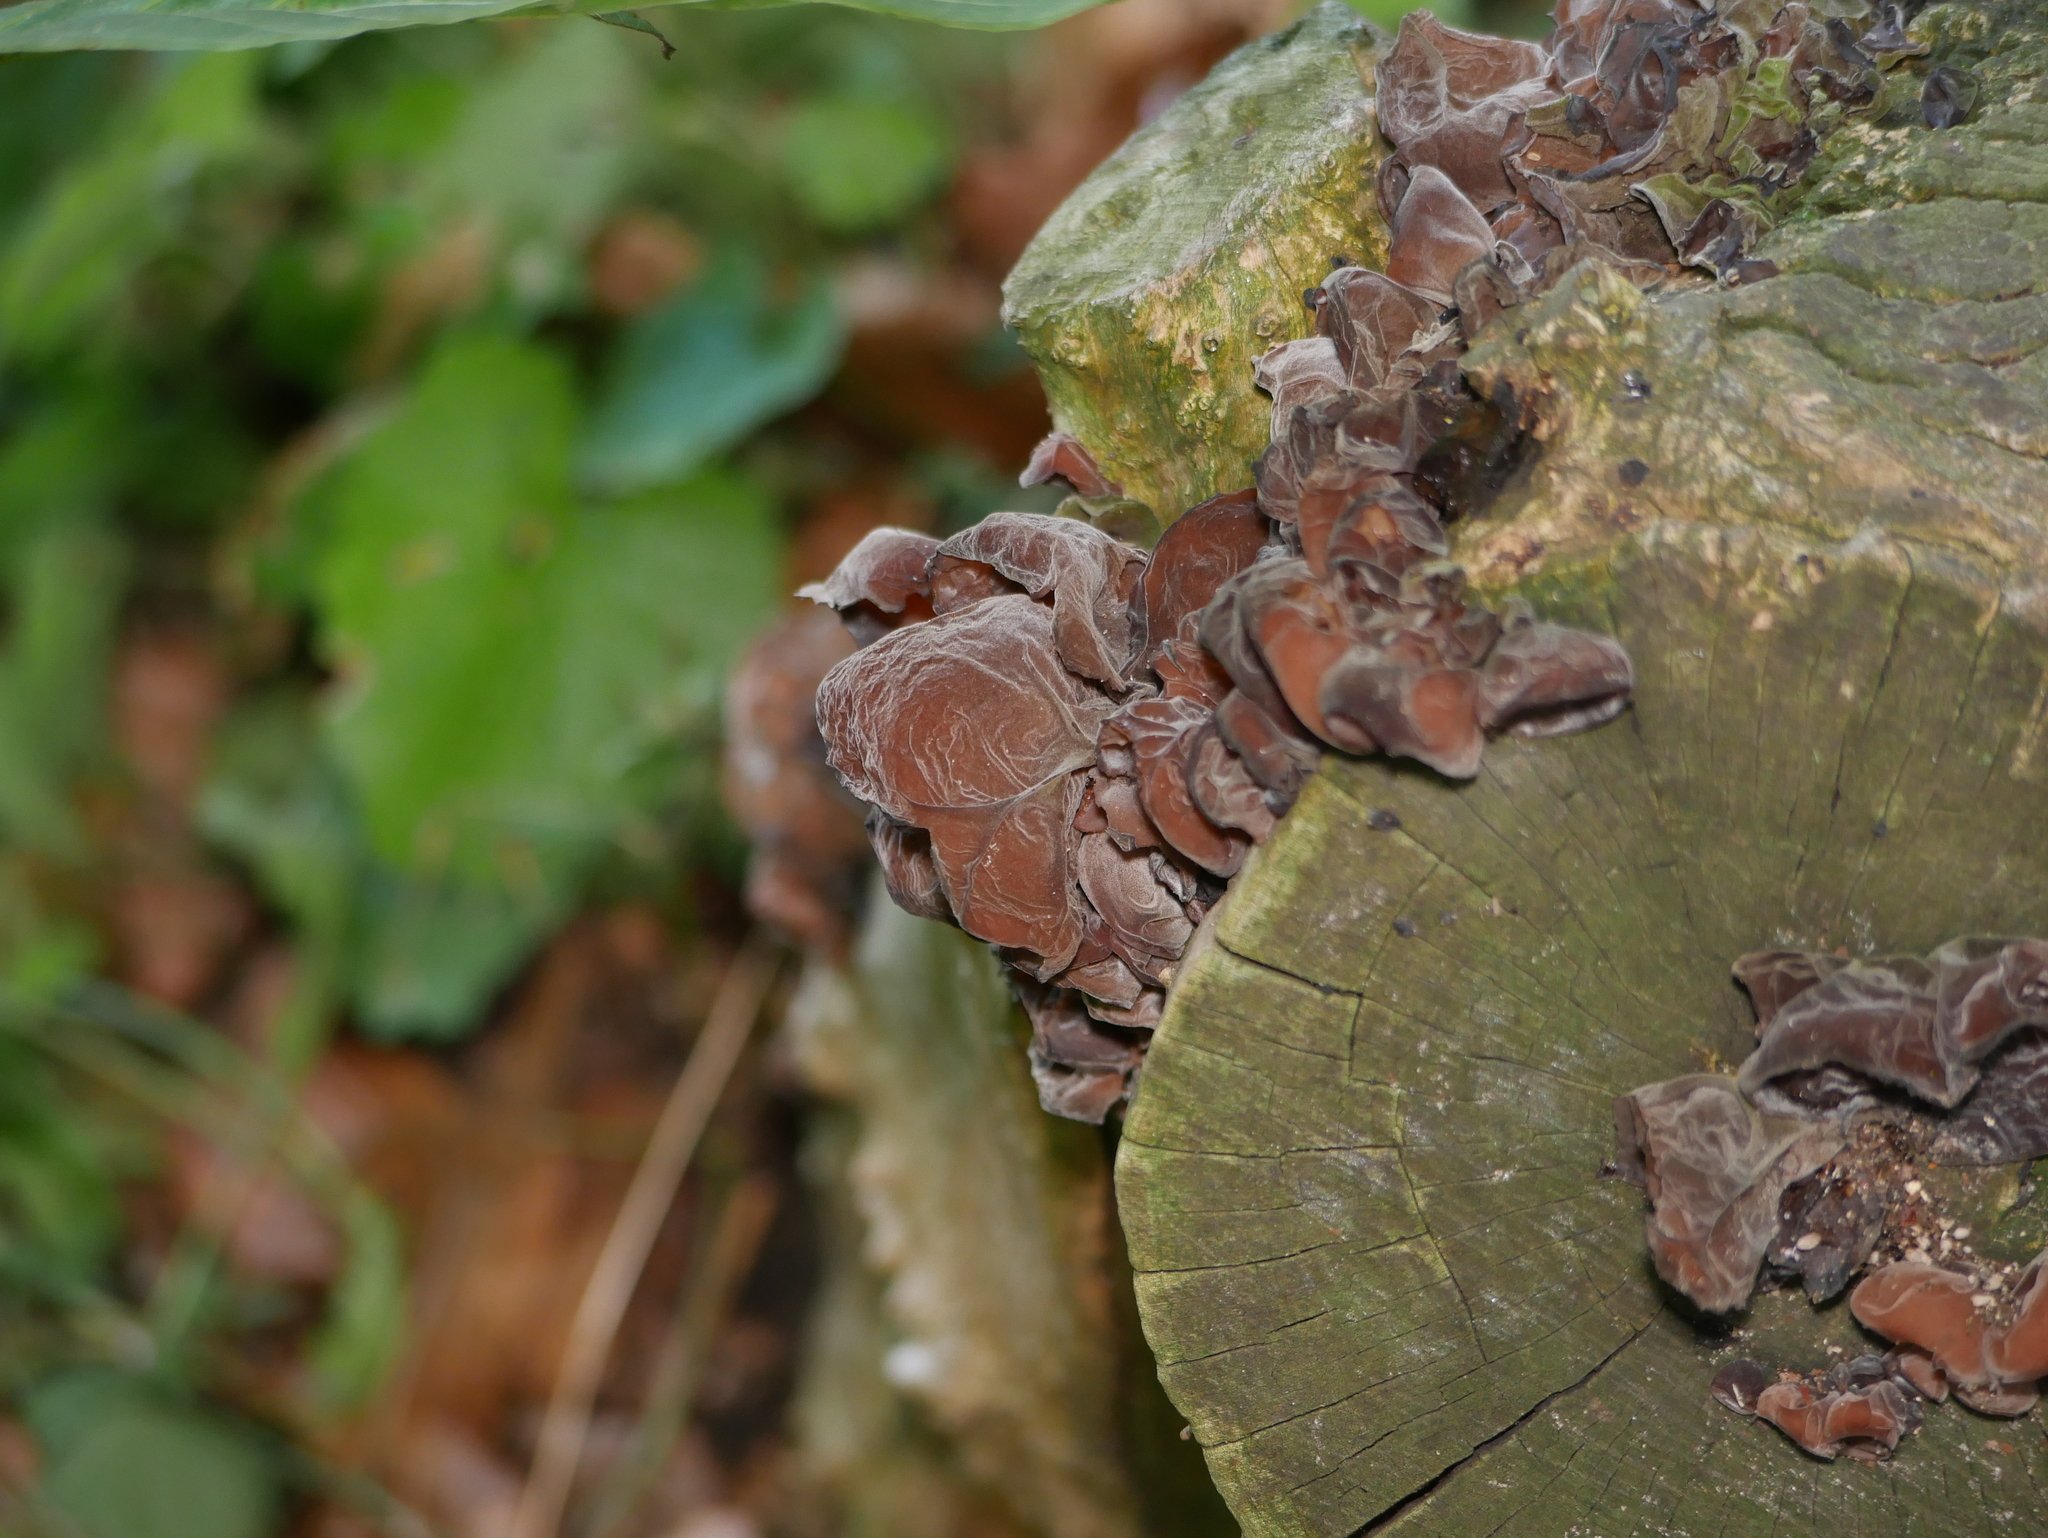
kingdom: Fungi
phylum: Basidiomycota
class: Agaricomycetes
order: Auriculariales
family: Auriculariaceae
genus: Auricularia
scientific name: Auricularia auricula-judae
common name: Jelly ear
